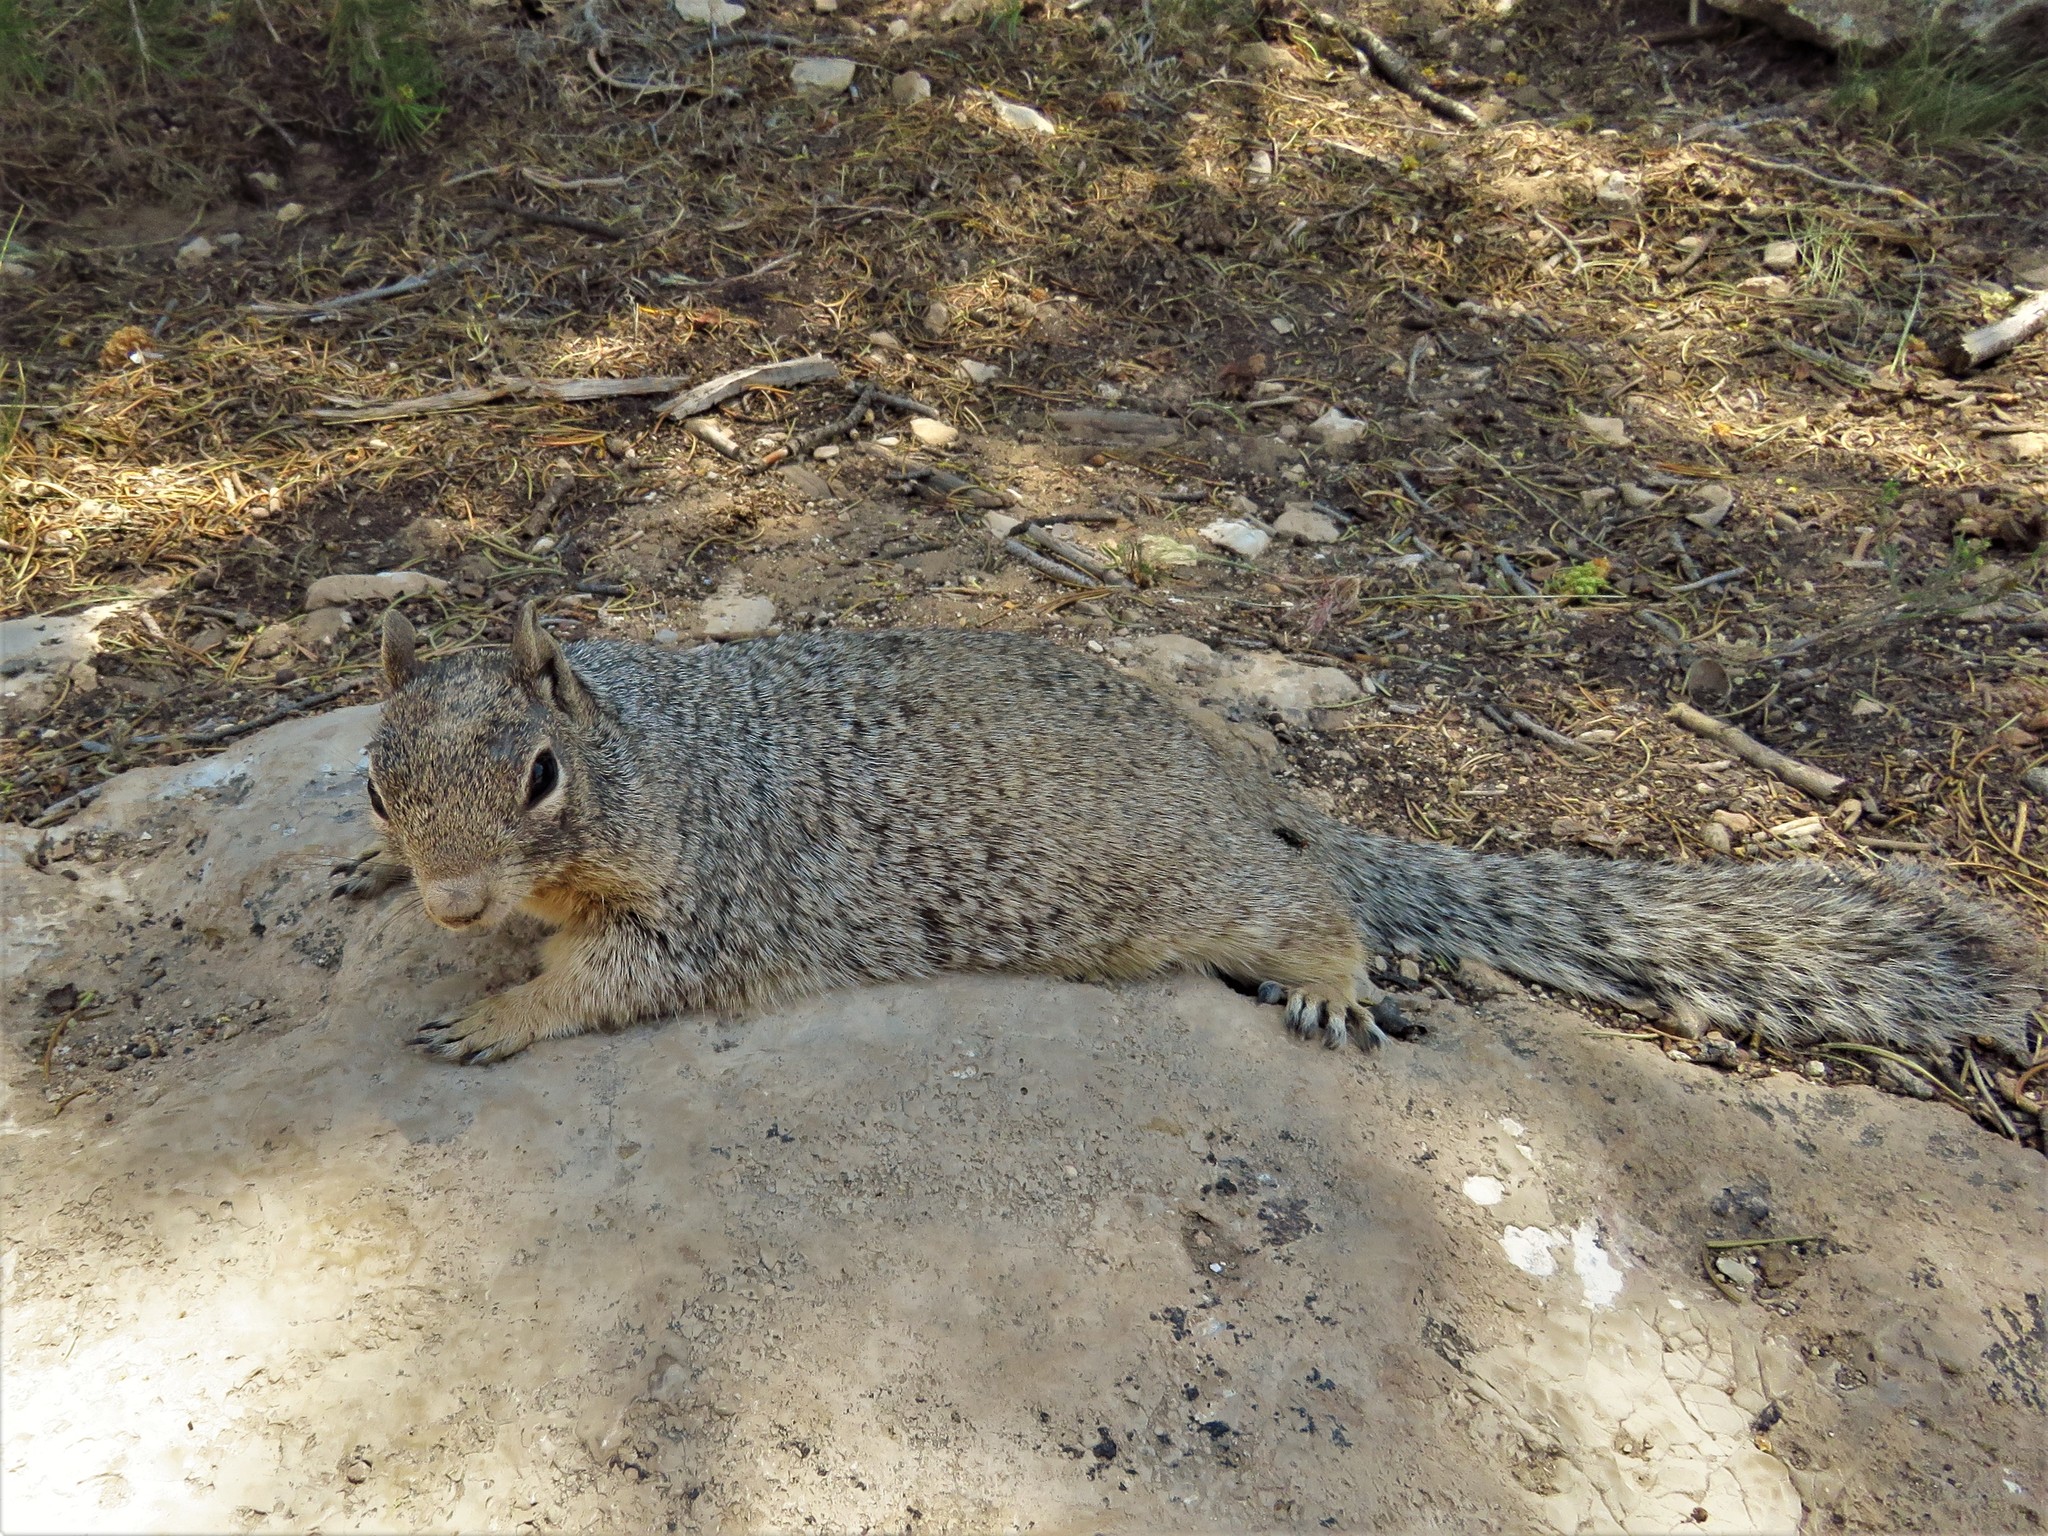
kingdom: Animalia
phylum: Chordata
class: Mammalia
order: Rodentia
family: Sciuridae
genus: Otospermophilus
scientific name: Otospermophilus variegatus
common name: Rock squirrel
